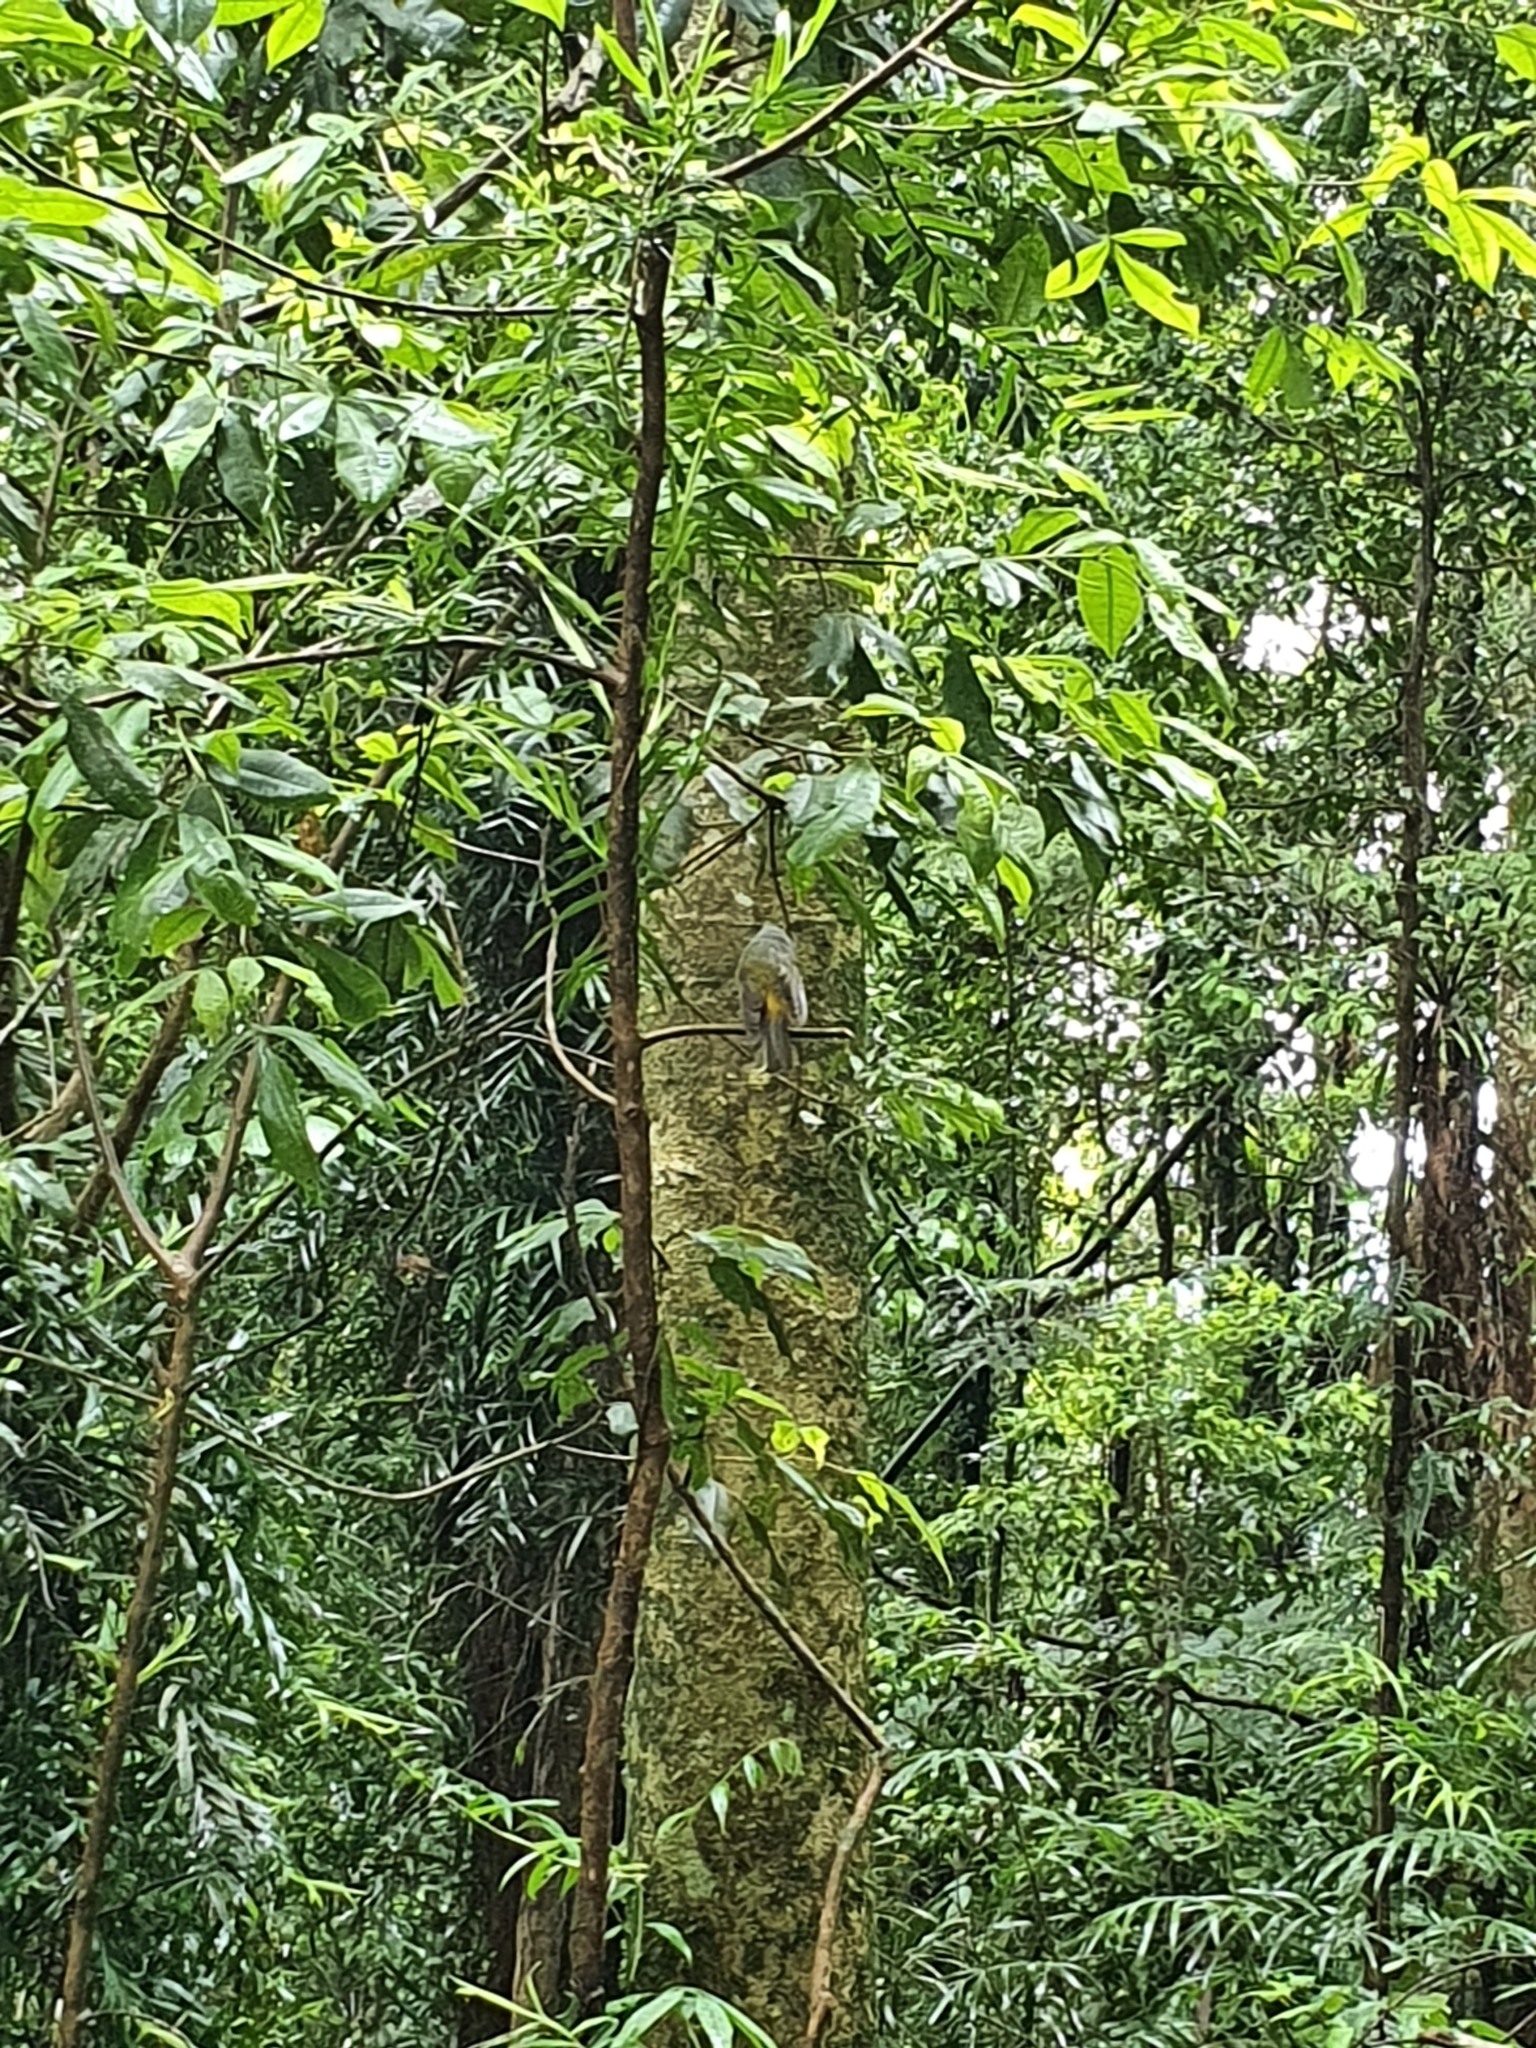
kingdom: Animalia
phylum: Chordata
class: Aves
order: Passeriformes
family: Petroicidae
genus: Eopsaltria
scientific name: Eopsaltria australis
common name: Eastern yellow robin
